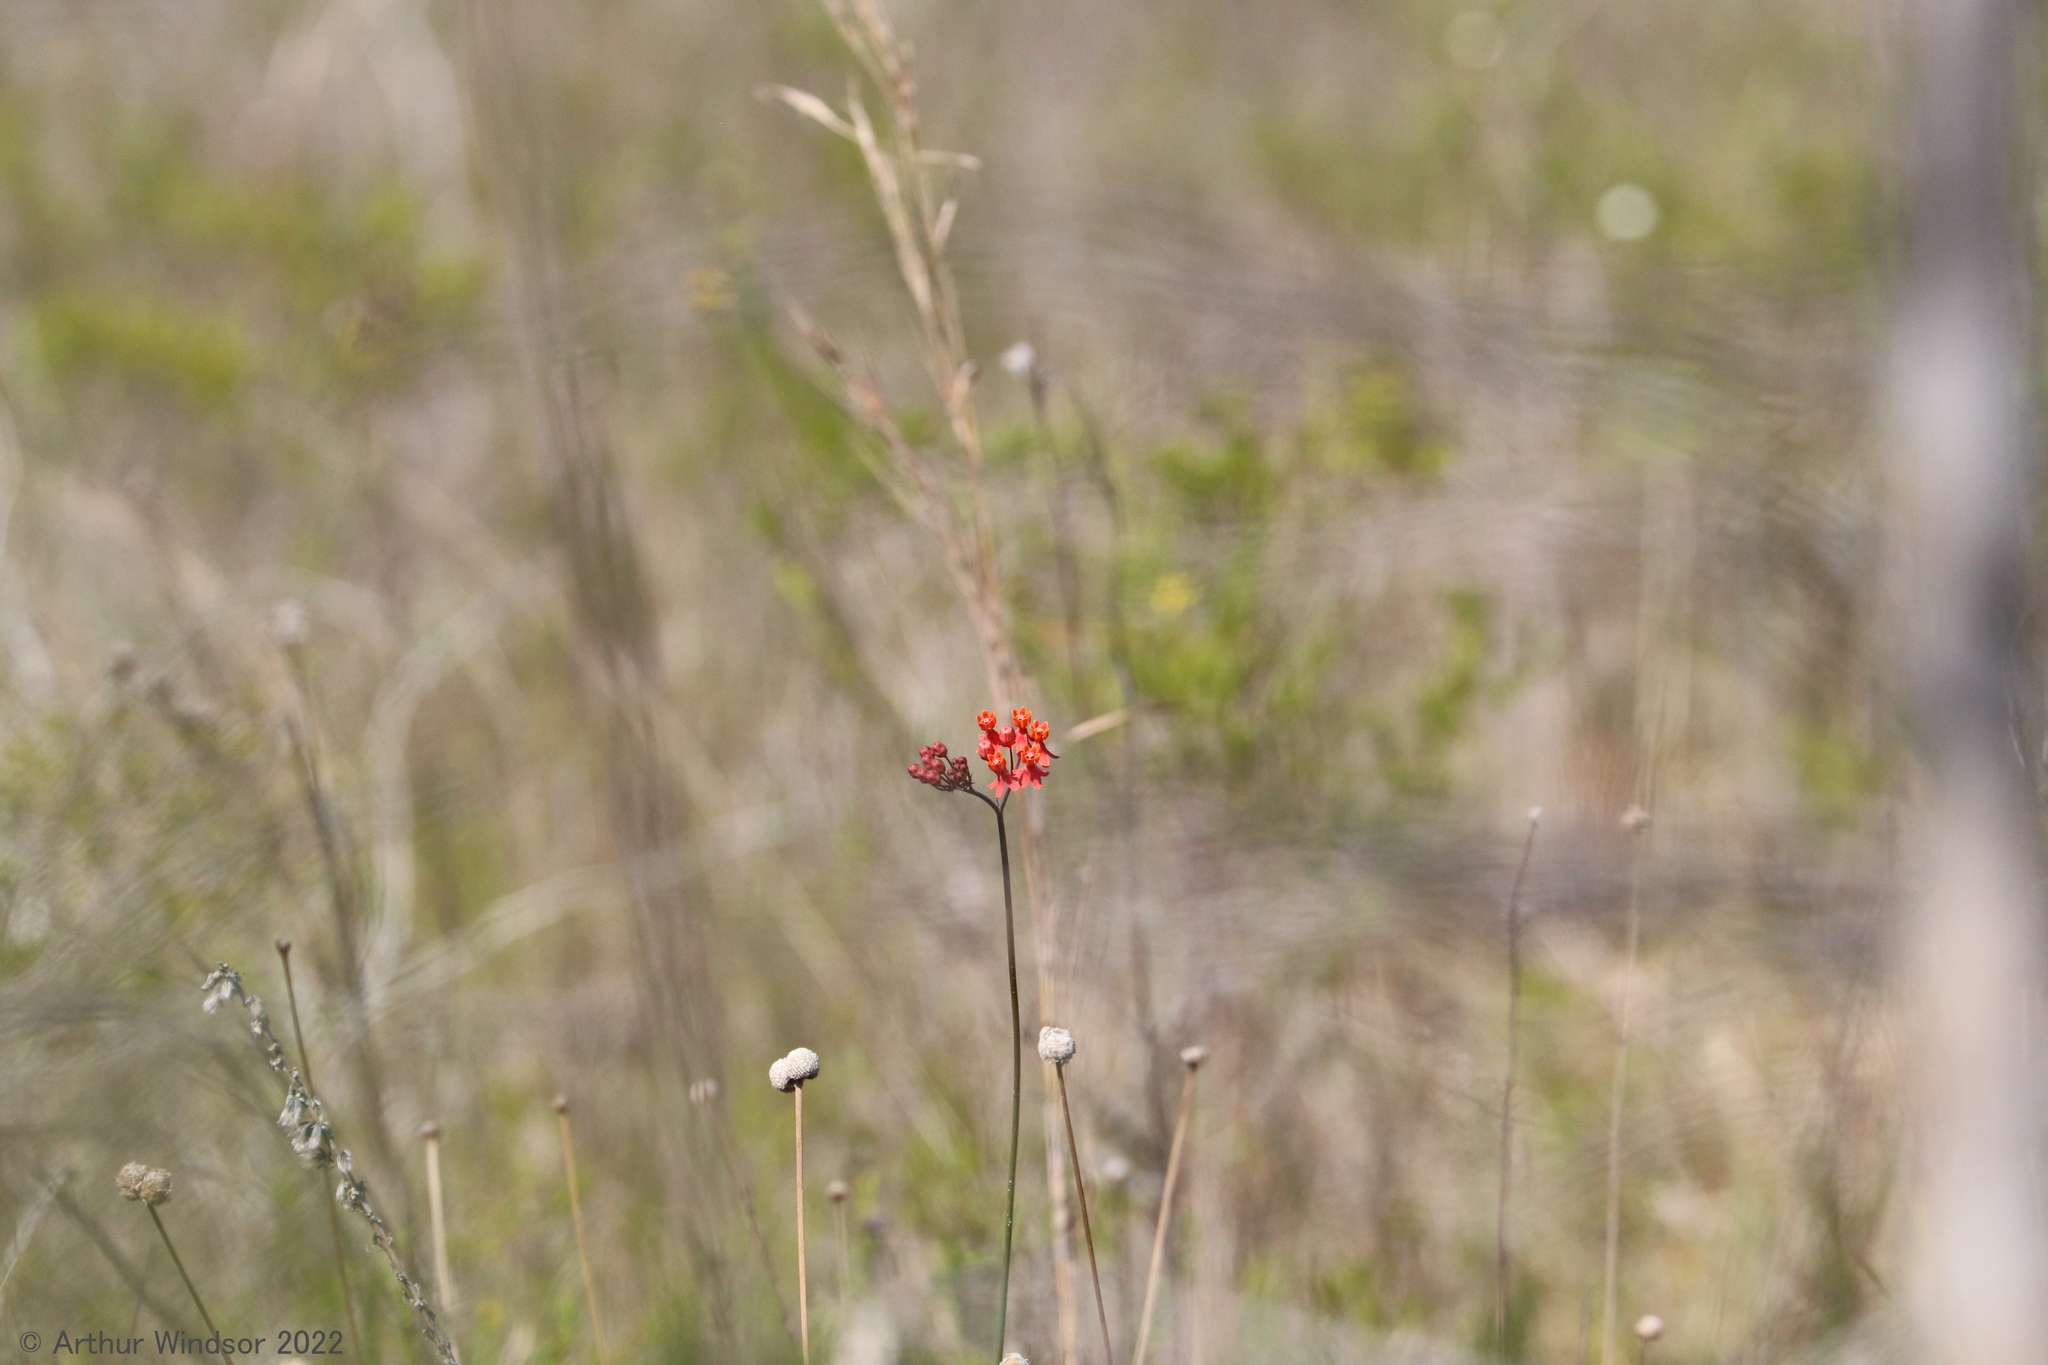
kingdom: Plantae
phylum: Tracheophyta
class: Magnoliopsida
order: Gentianales
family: Apocynaceae
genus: Asclepias
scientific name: Asclepias lanceolata
